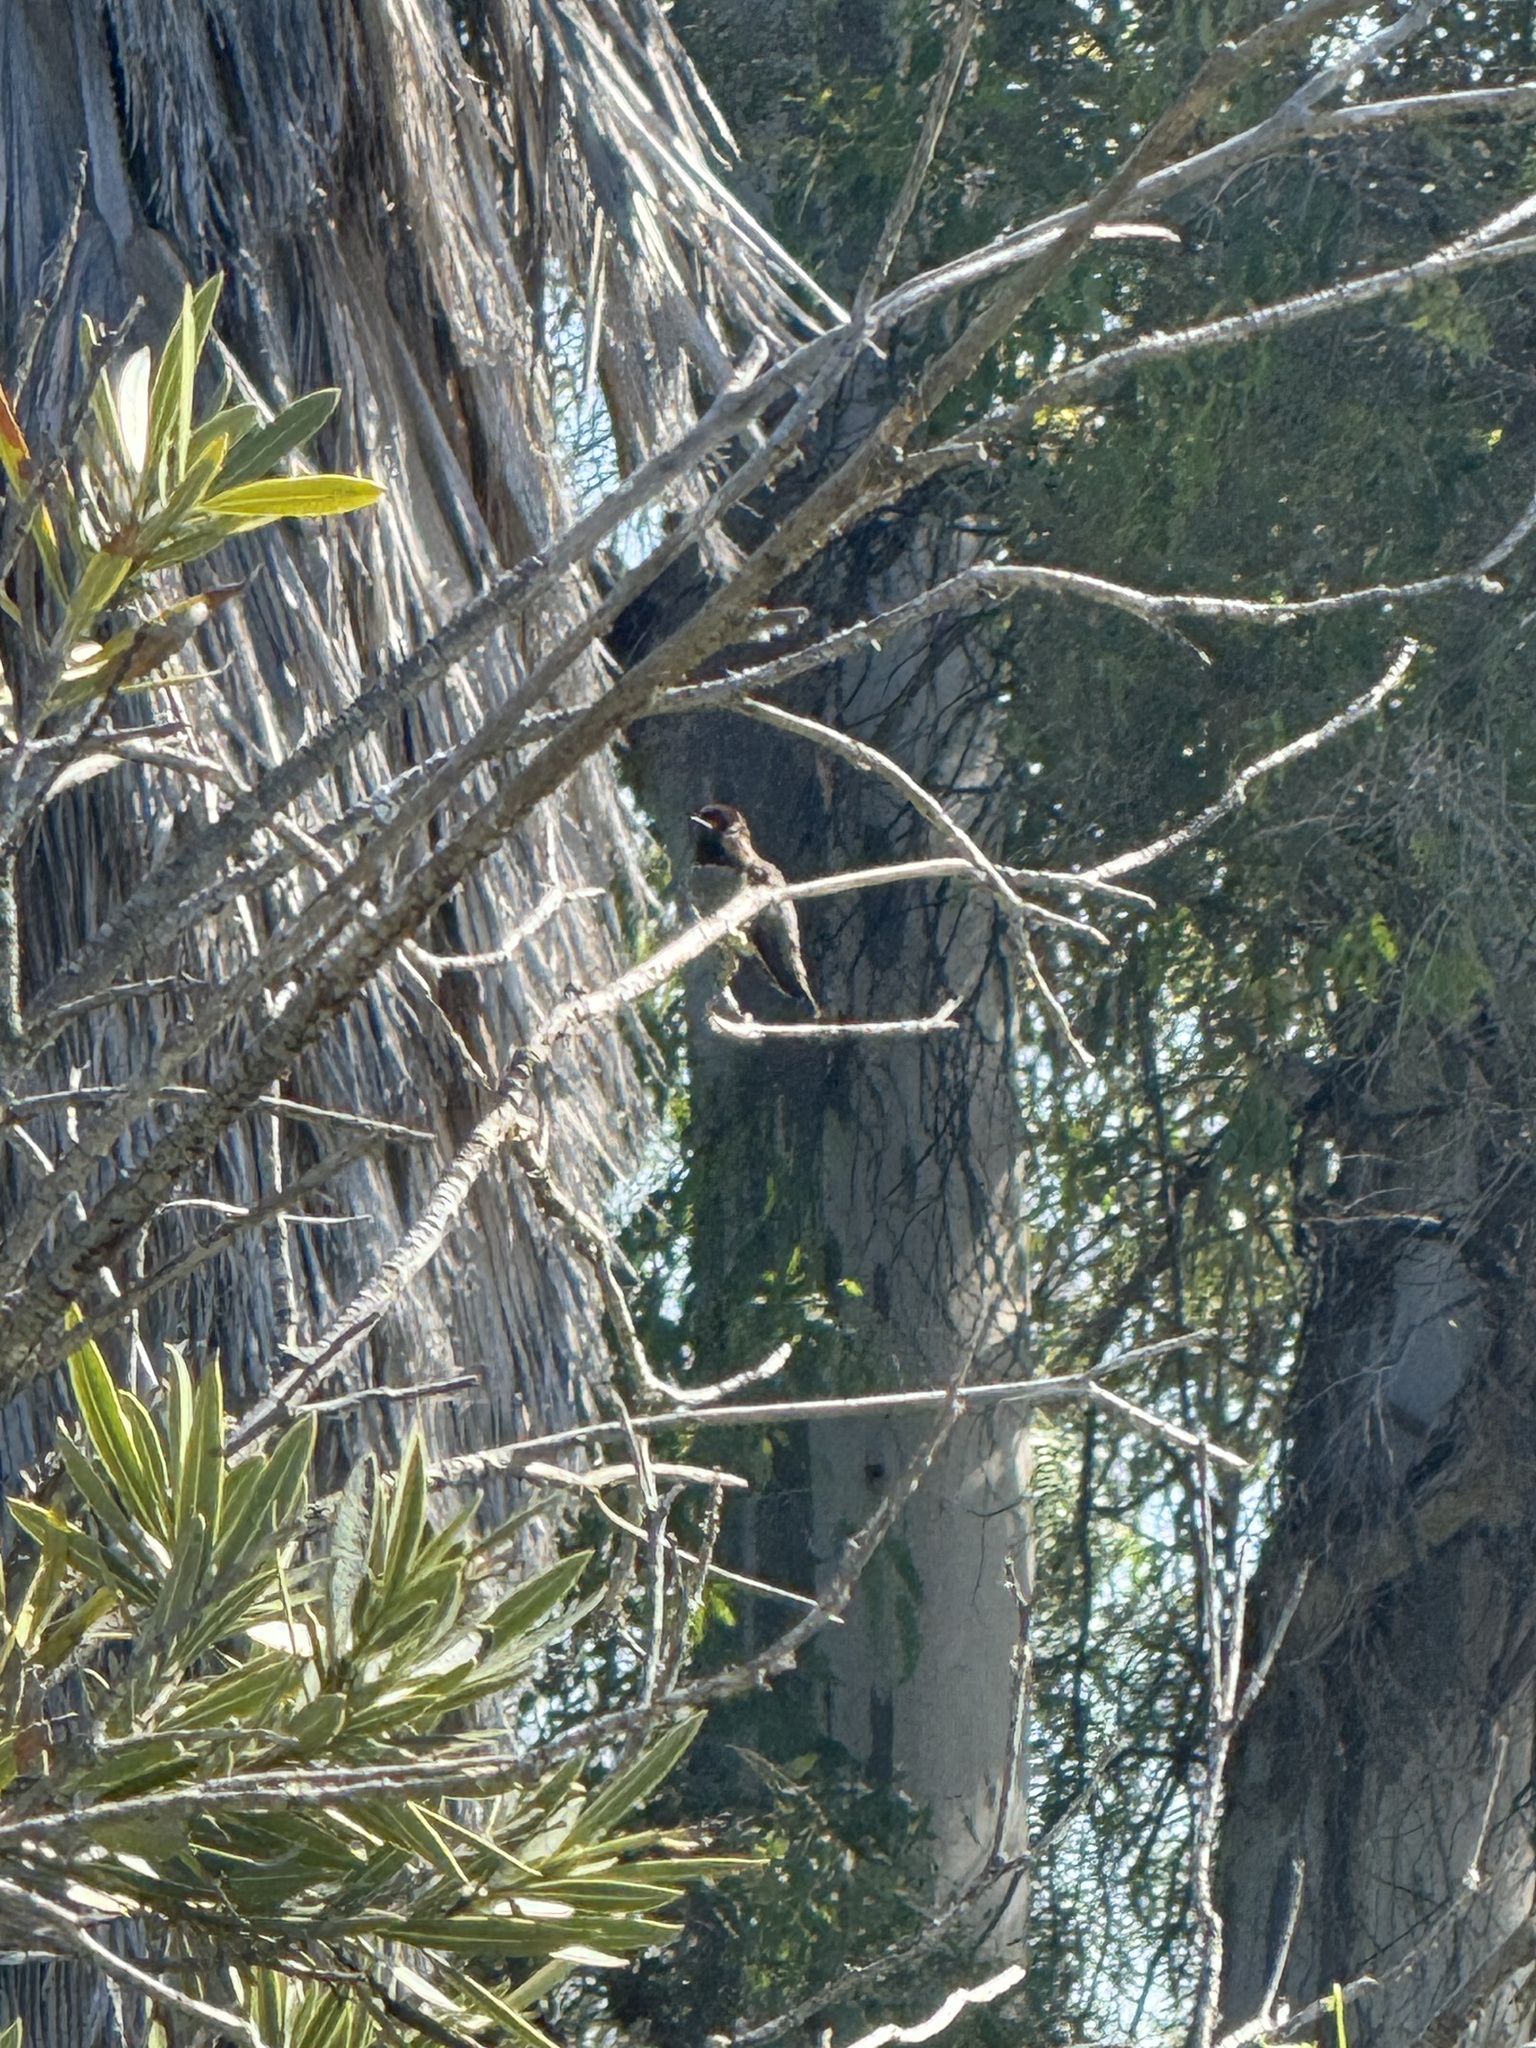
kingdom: Animalia
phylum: Chordata
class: Aves
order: Apodiformes
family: Trochilidae
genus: Calypte
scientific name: Calypte anna
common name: Anna's hummingbird
